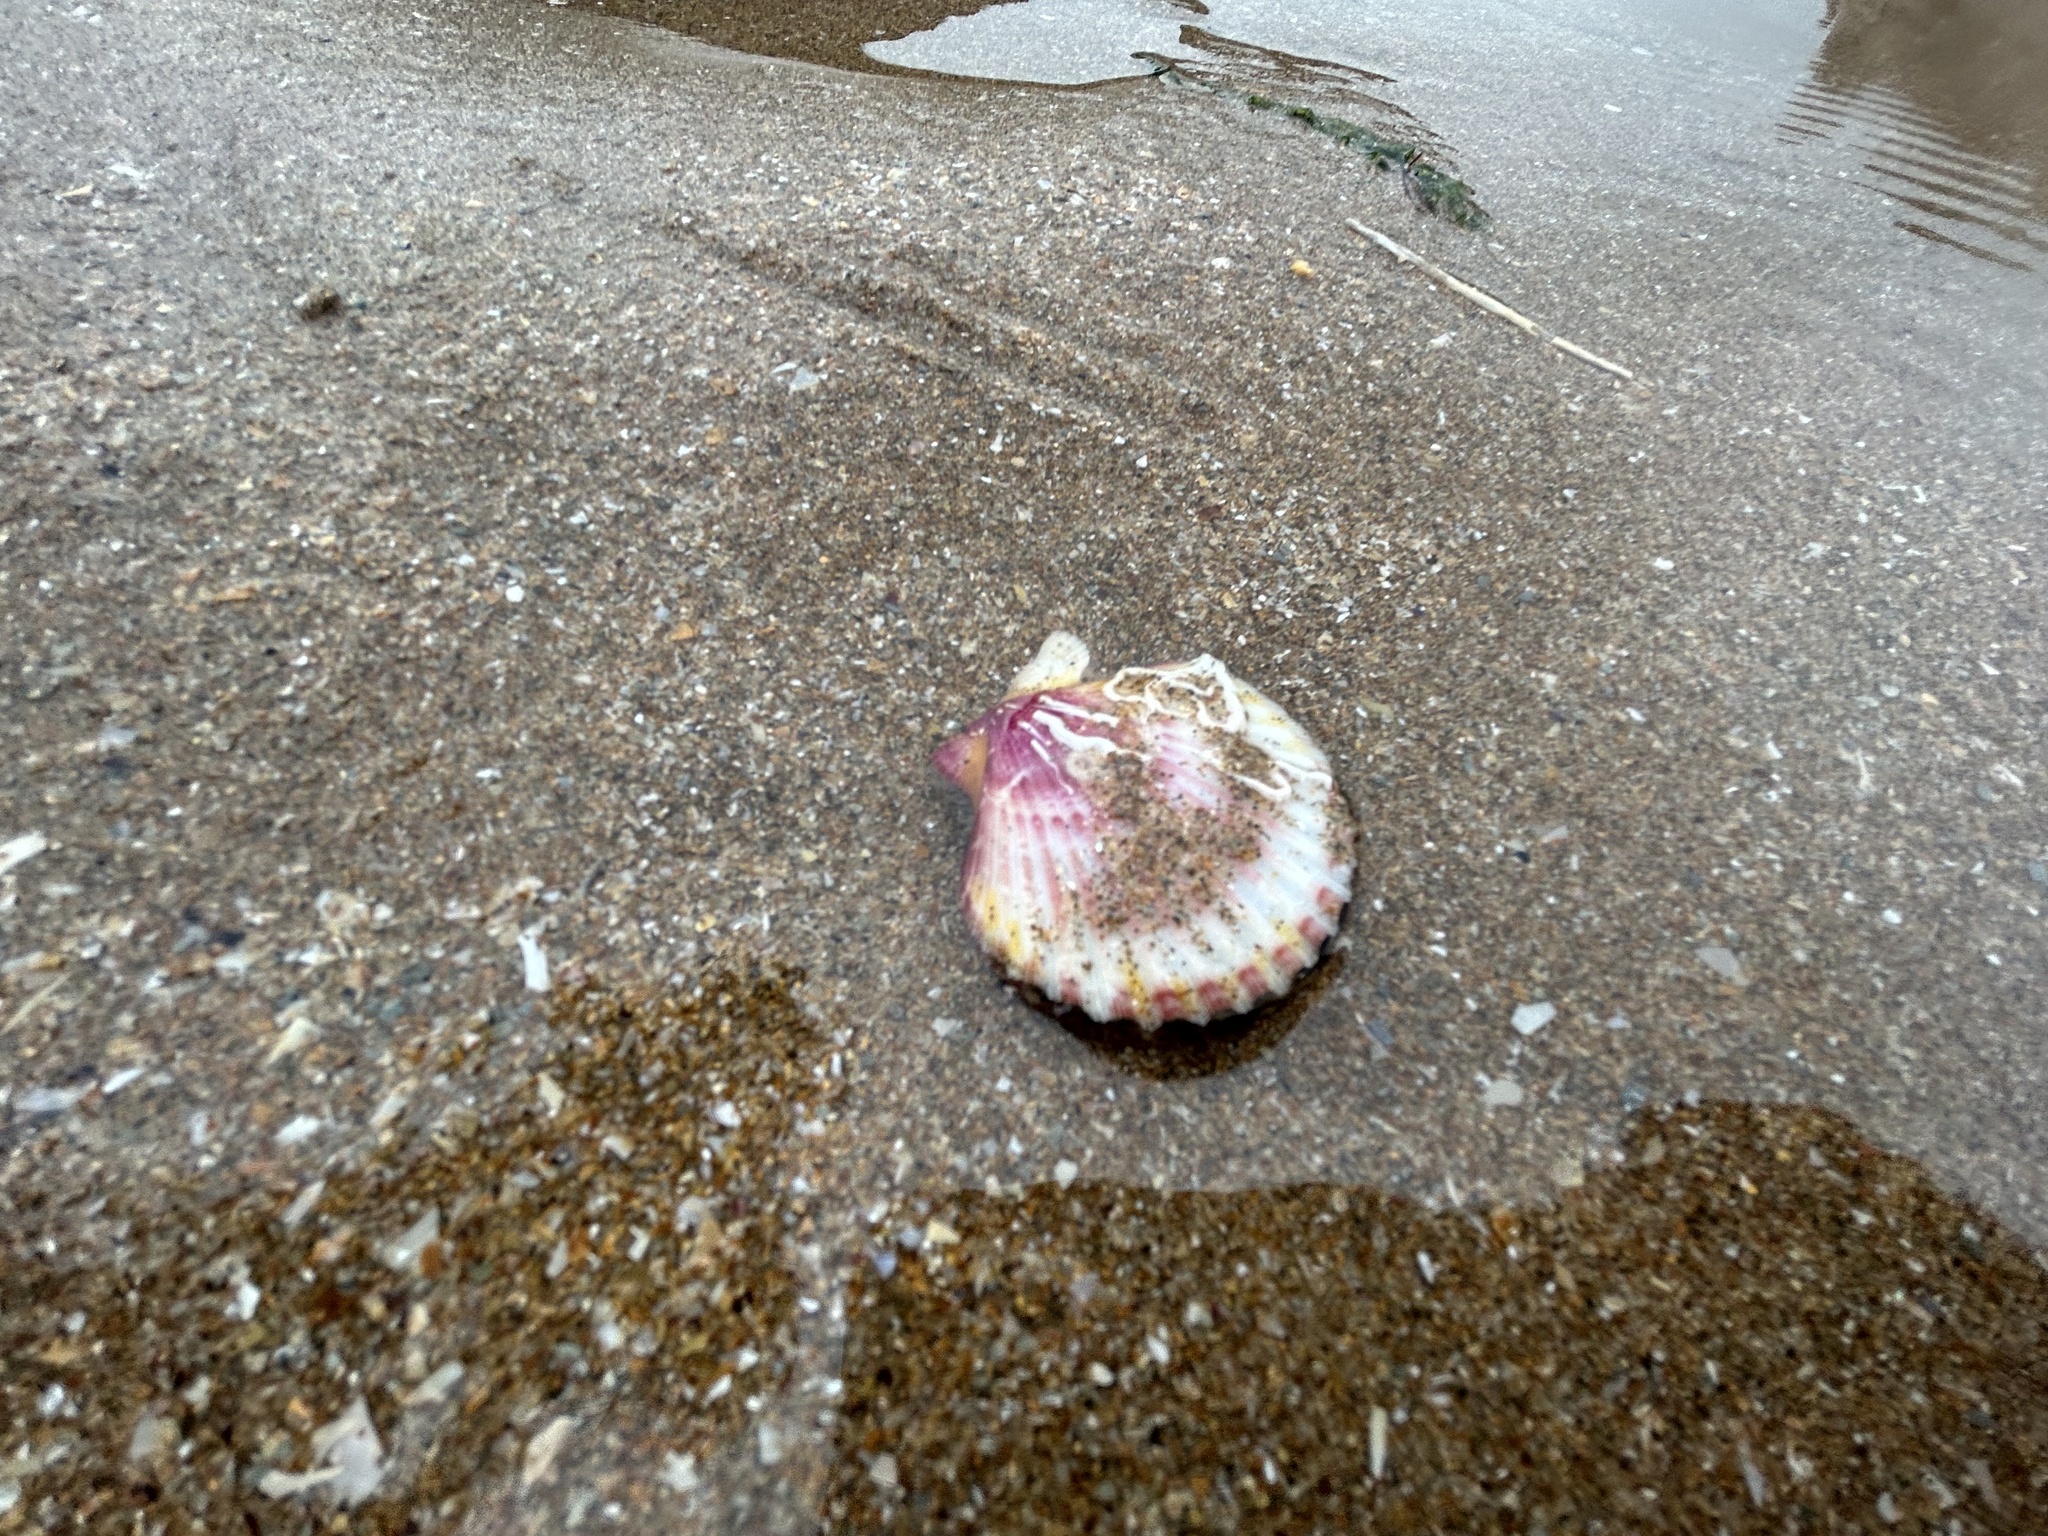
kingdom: Animalia
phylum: Mollusca
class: Bivalvia
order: Pectinida
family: Pectinidae
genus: Aequipecten
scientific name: Aequipecten opercularis
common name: Queen scallop
